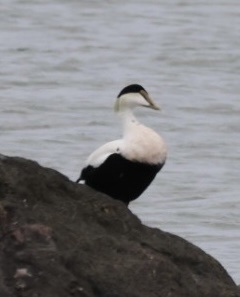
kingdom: Animalia
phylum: Chordata
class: Aves
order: Anseriformes
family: Anatidae
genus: Somateria
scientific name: Somateria mollissima
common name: Common eider
